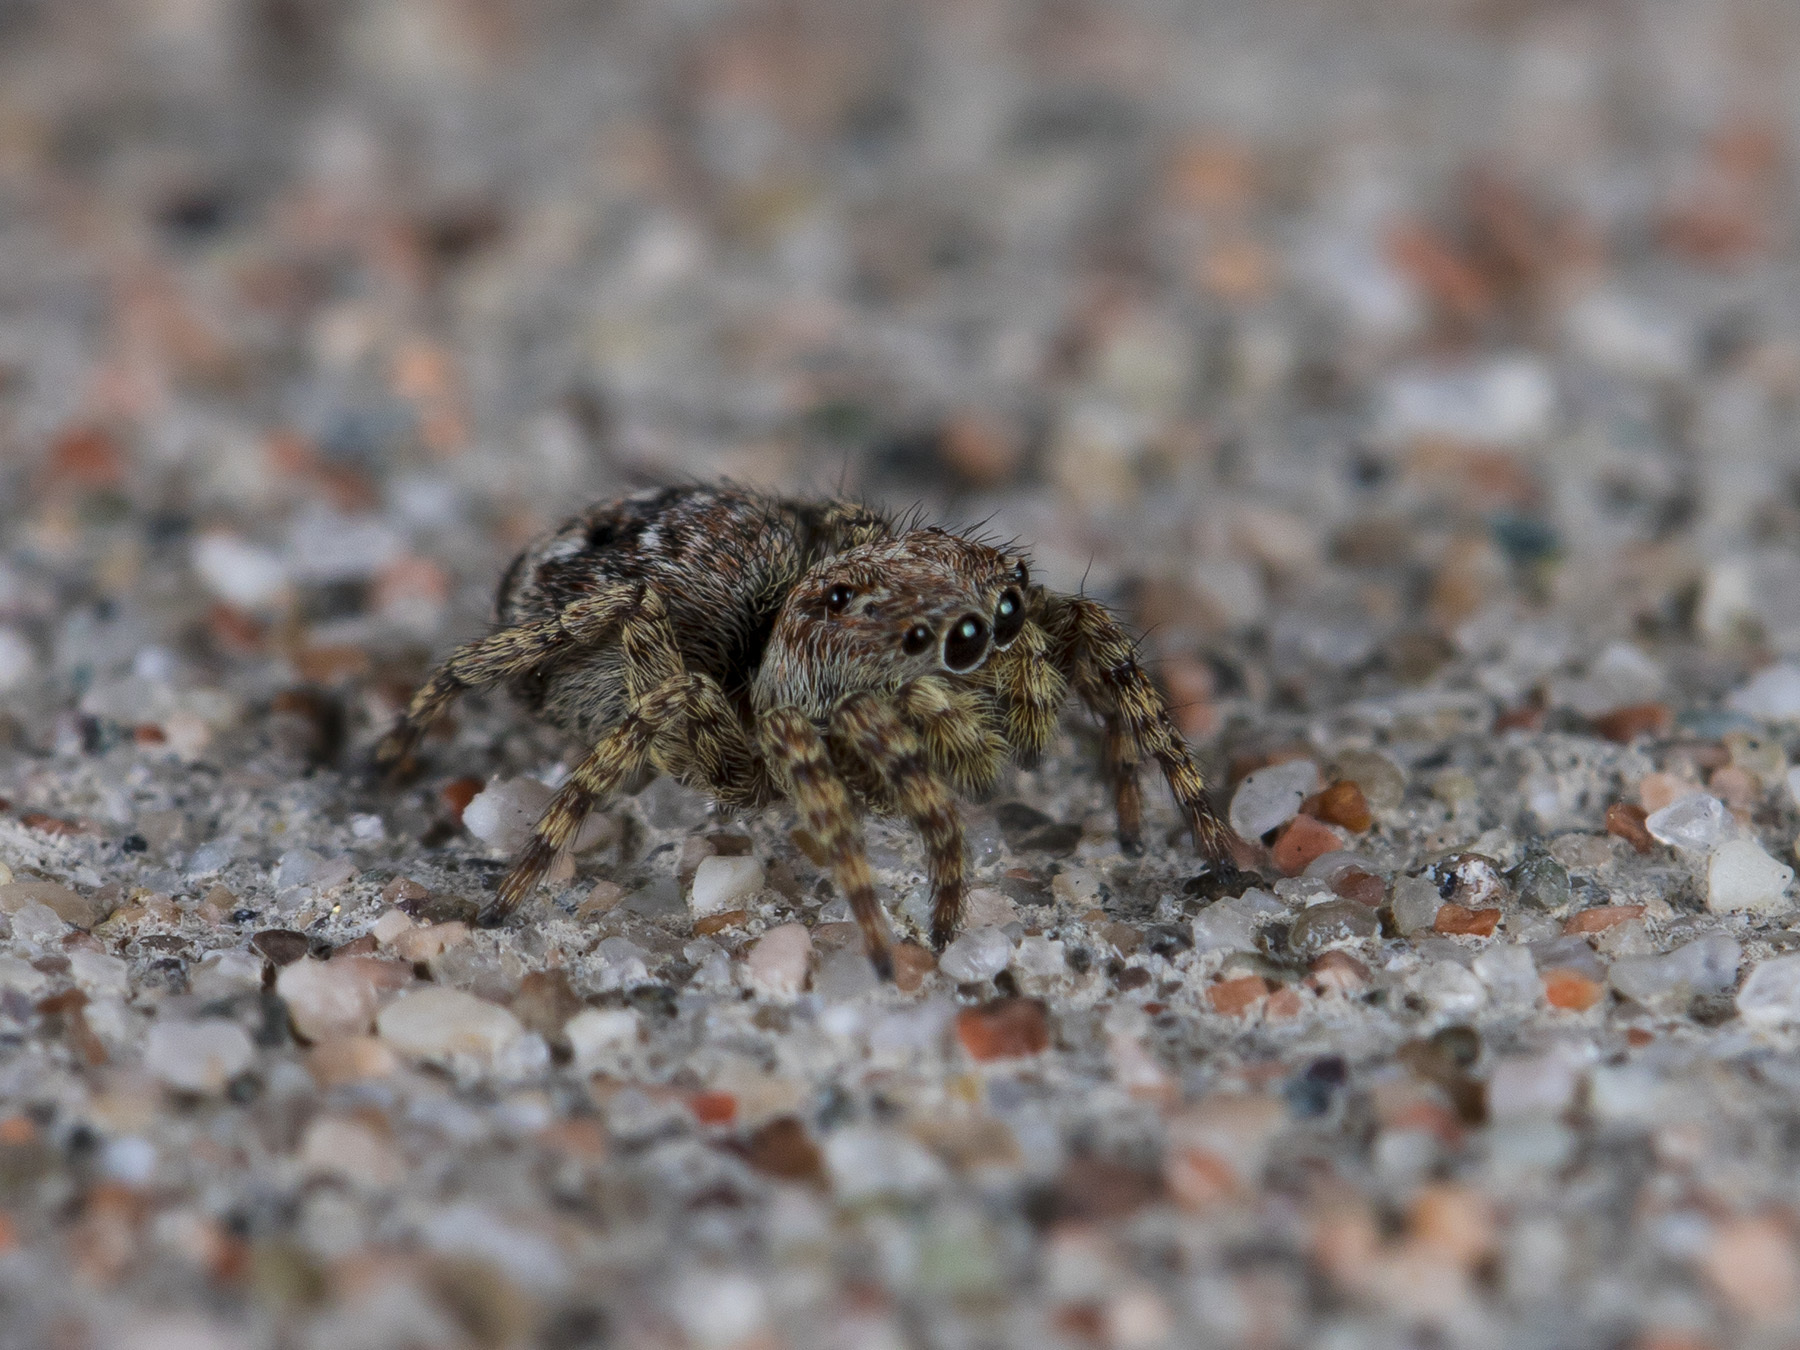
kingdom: Animalia
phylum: Arthropoda
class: Arachnida
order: Araneae
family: Salticidae
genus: Attulus
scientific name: Attulus fasciger
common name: Asiatic wall jumping spider
